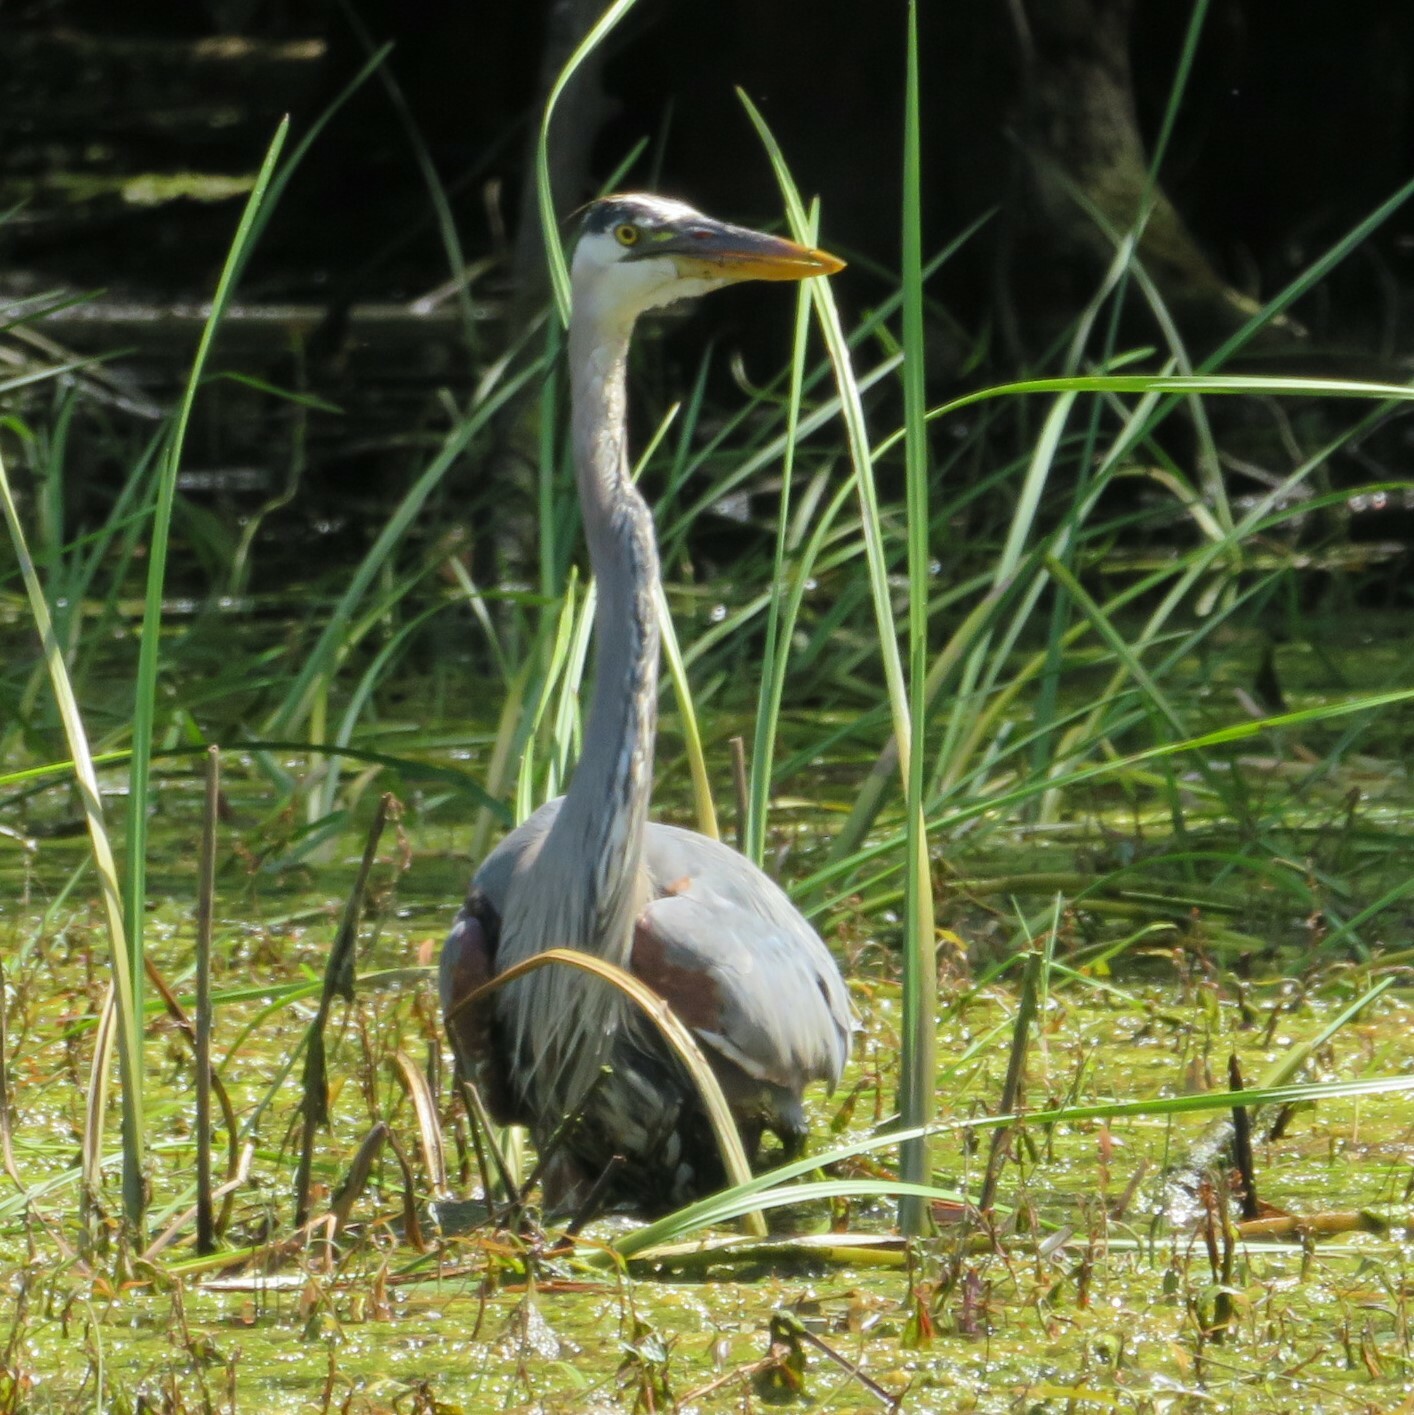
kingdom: Animalia
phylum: Chordata
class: Aves
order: Pelecaniformes
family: Ardeidae
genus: Ardea
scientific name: Ardea herodias
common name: Great blue heron
